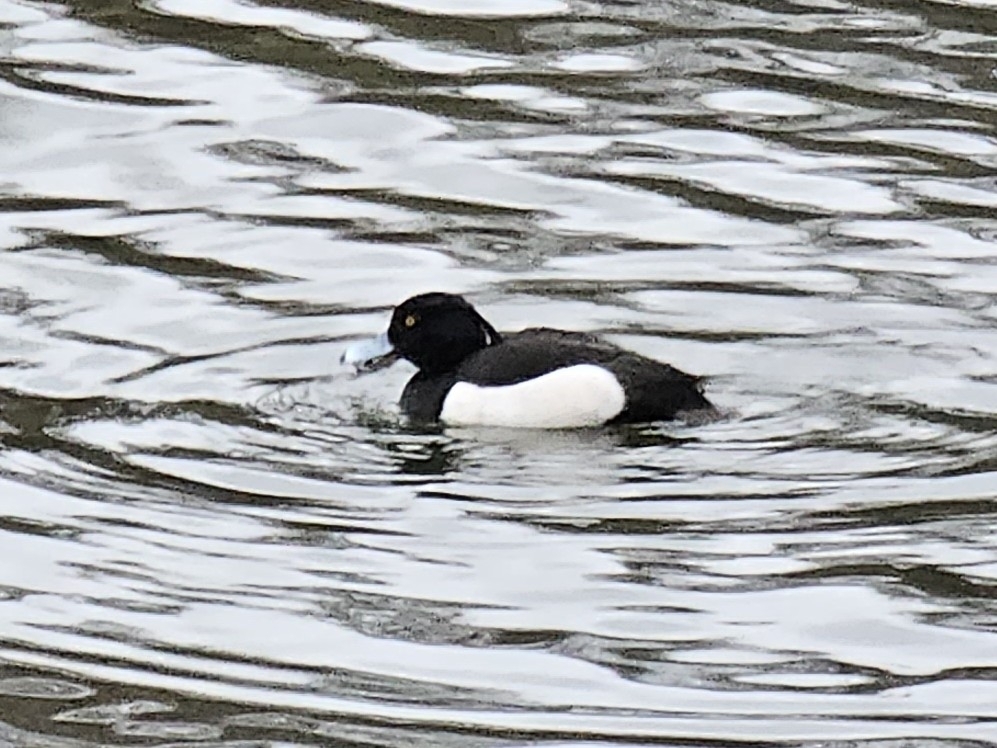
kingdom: Animalia
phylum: Chordata
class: Aves
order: Anseriformes
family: Anatidae
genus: Aythya
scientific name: Aythya fuligula
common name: Tufted duck
